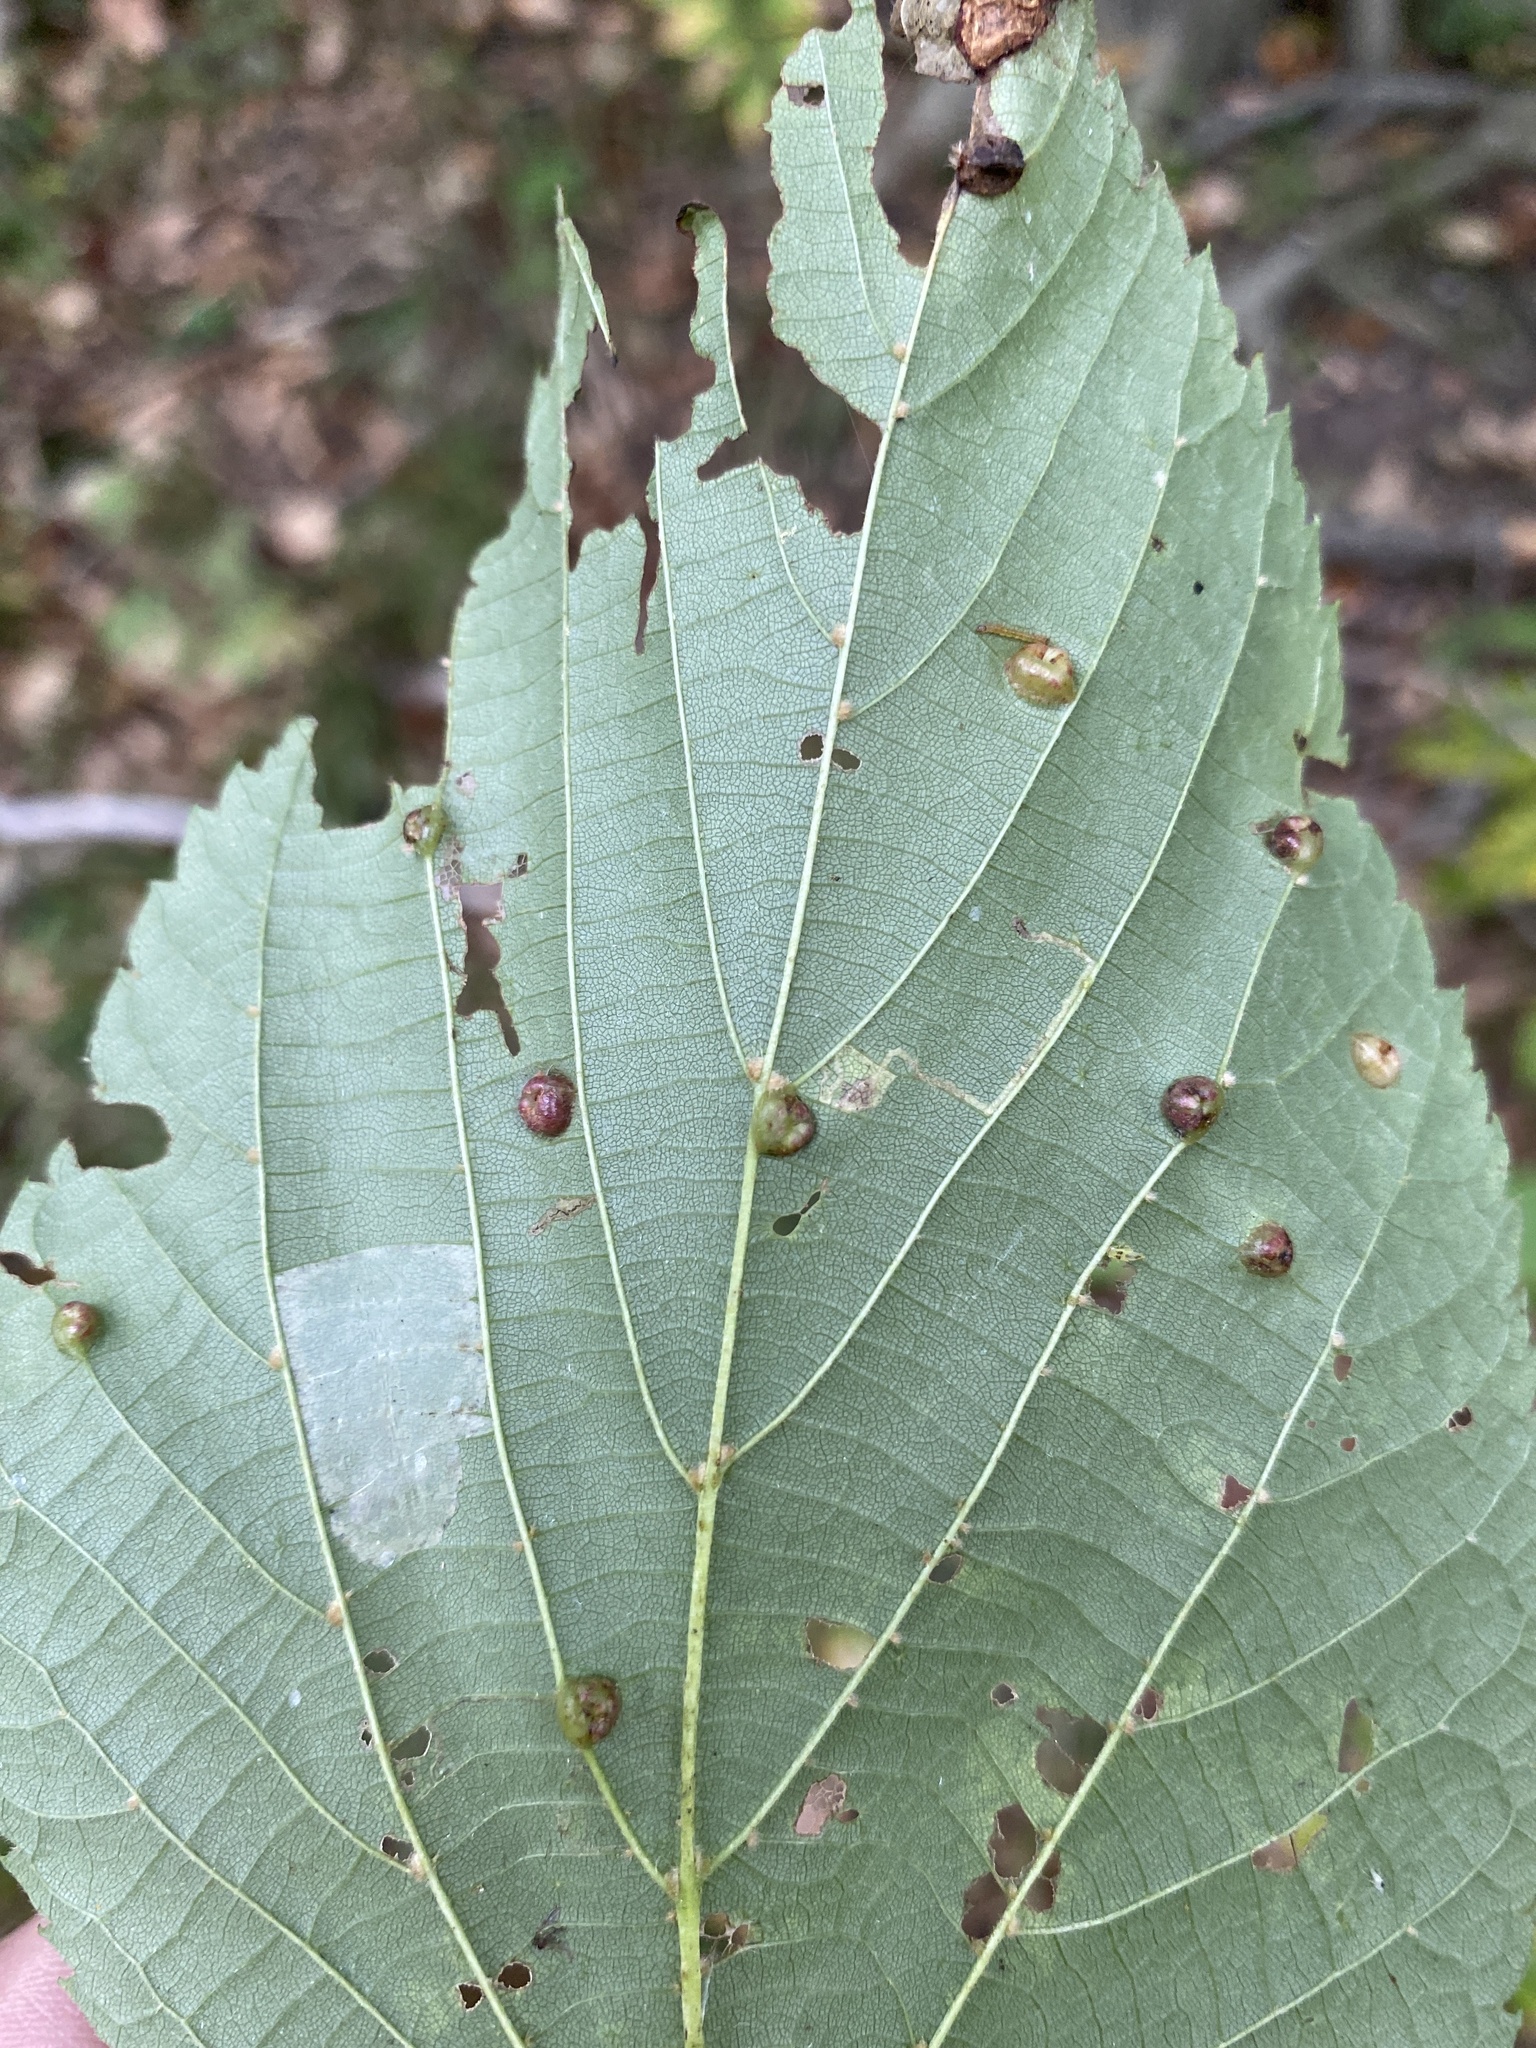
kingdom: Animalia
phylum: Arthropoda
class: Insecta
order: Diptera
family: Cecidomyiidae
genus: Contarinia
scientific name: Contarinia verrucicola
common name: Linden wart gall midge
